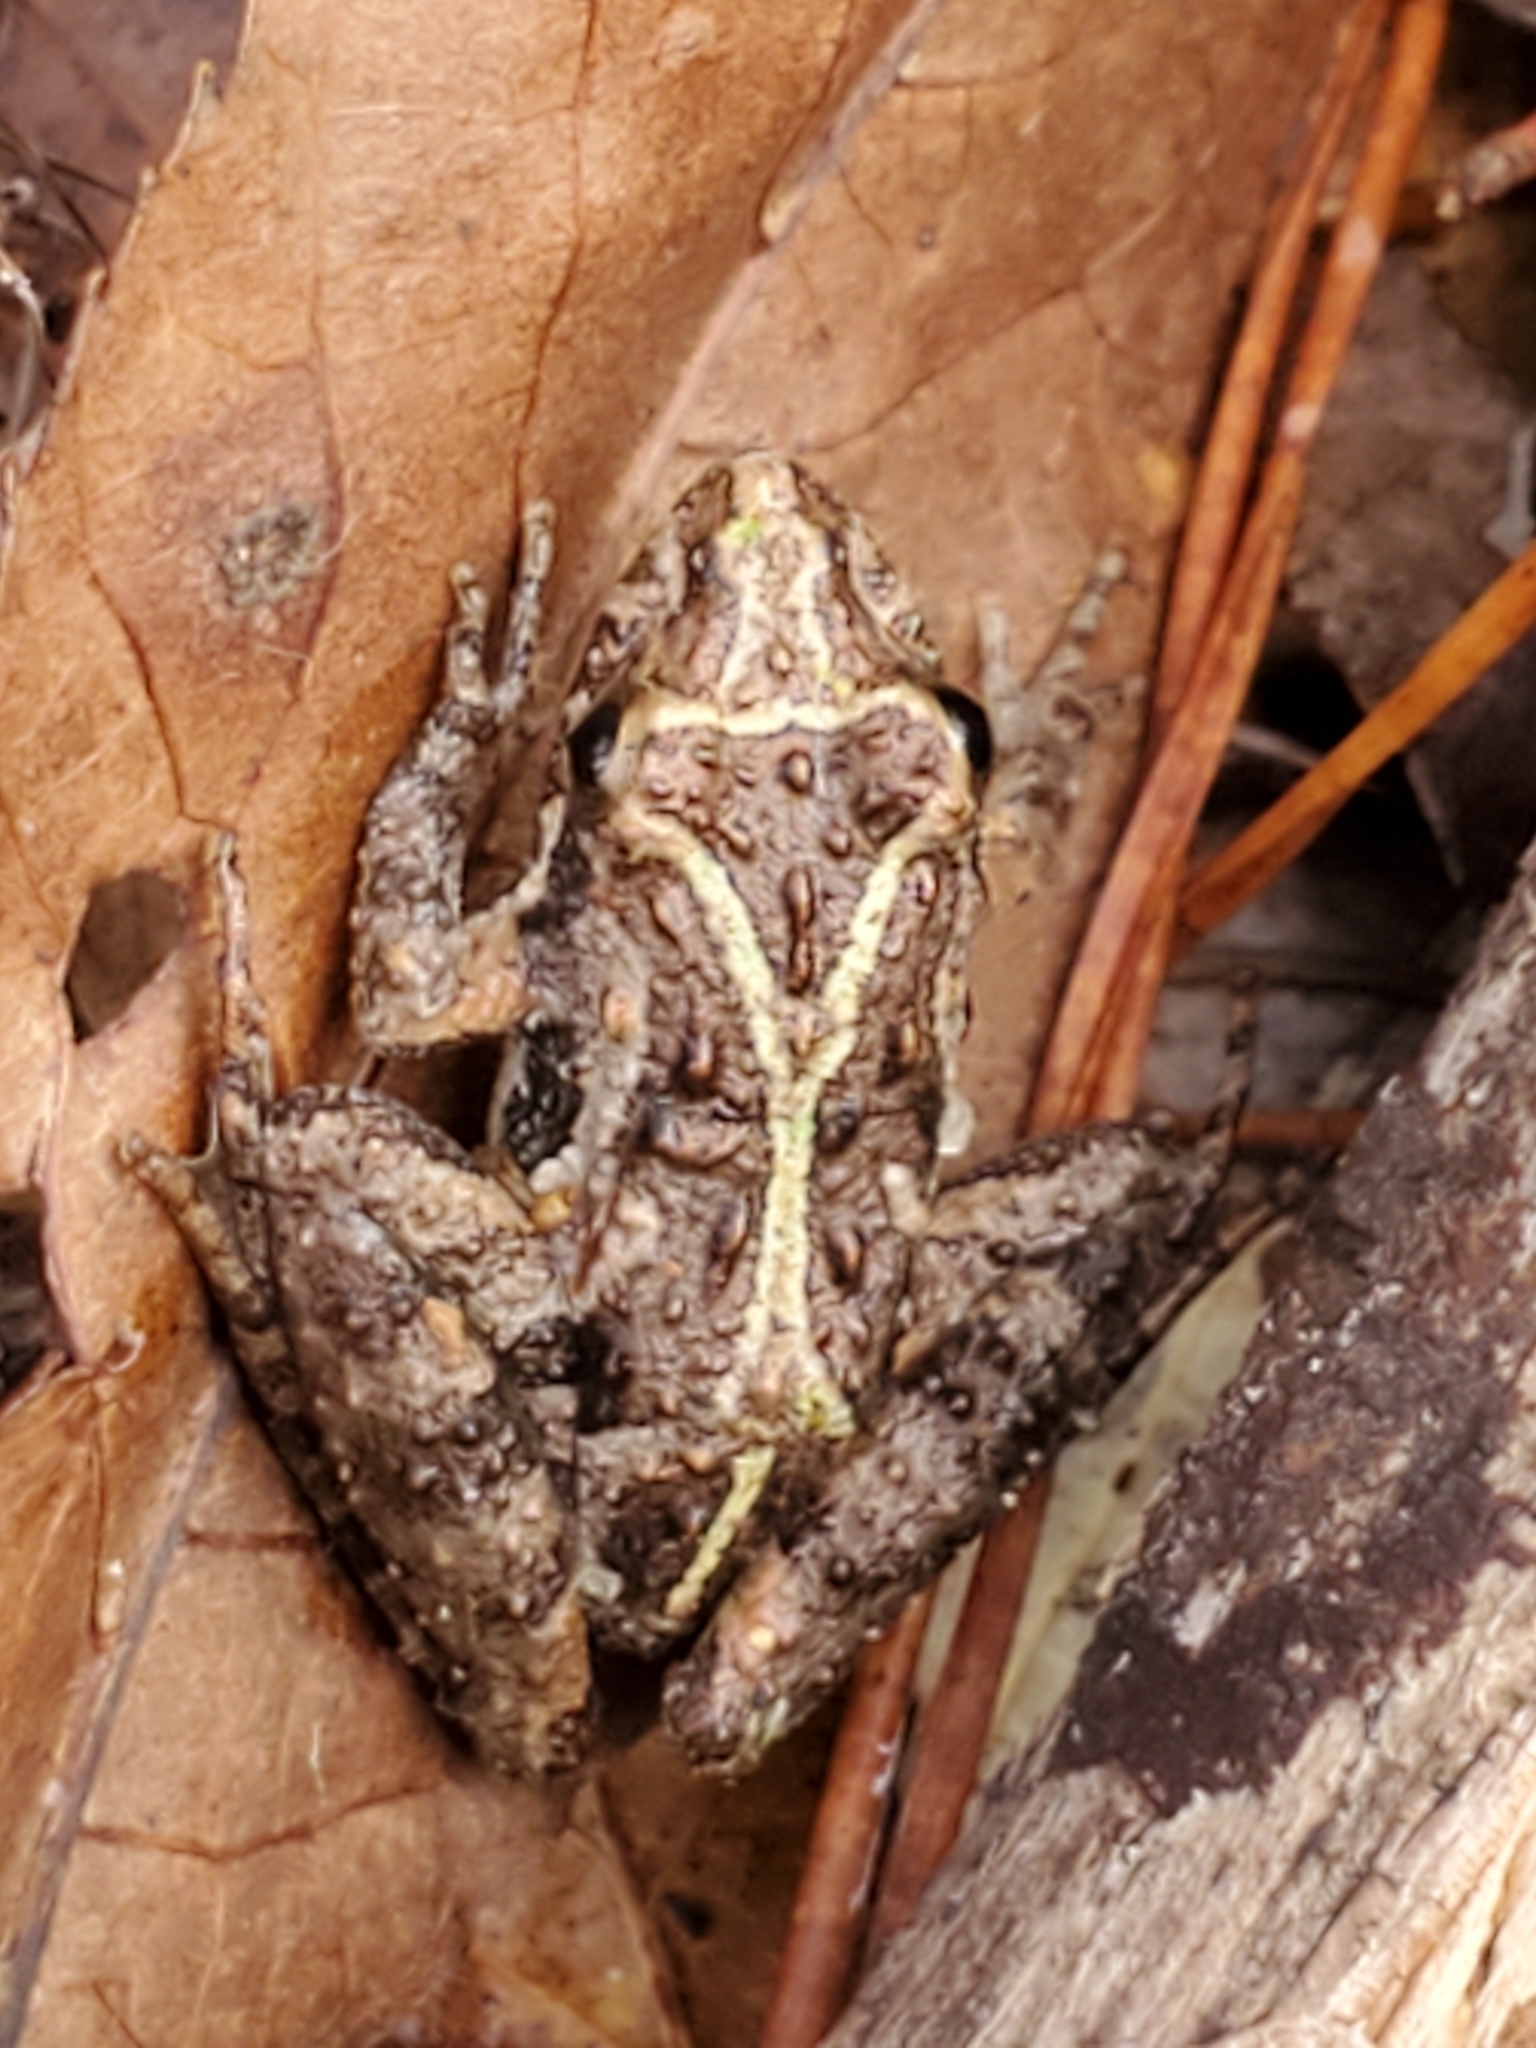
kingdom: Animalia
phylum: Chordata
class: Amphibia
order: Anura
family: Hylidae
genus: Acris
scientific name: Acris gryllus
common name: Southern cricket frog
